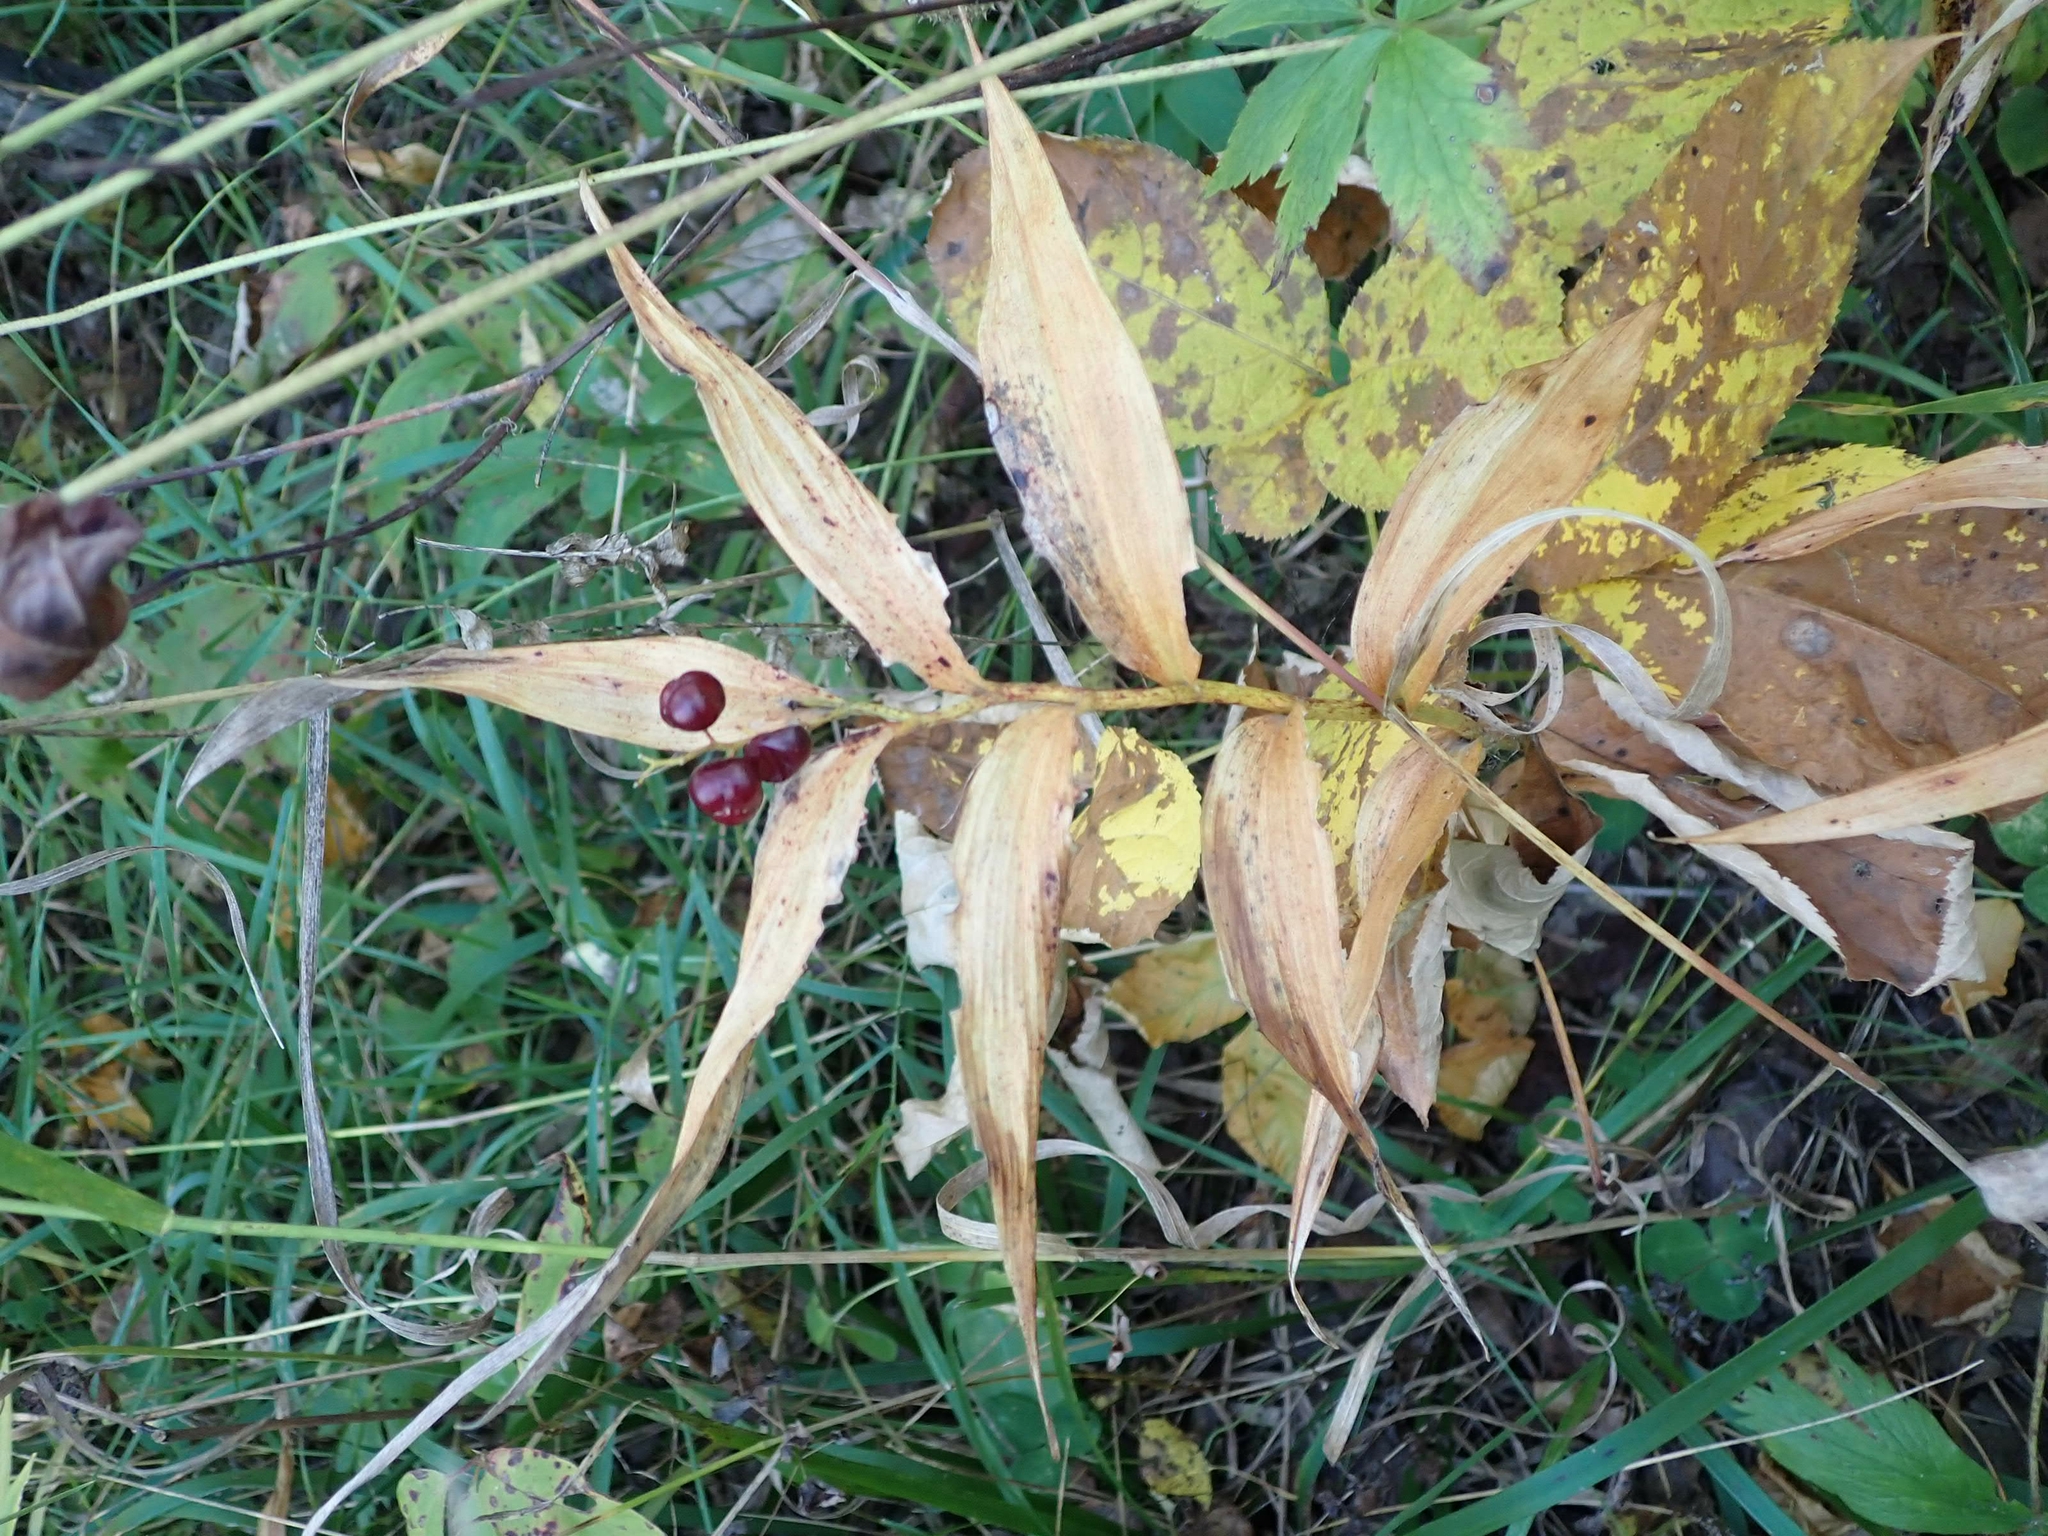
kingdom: Plantae
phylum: Tracheophyta
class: Liliopsida
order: Asparagales
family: Asparagaceae
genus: Maianthemum
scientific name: Maianthemum stellatum
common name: Little false solomon's seal
